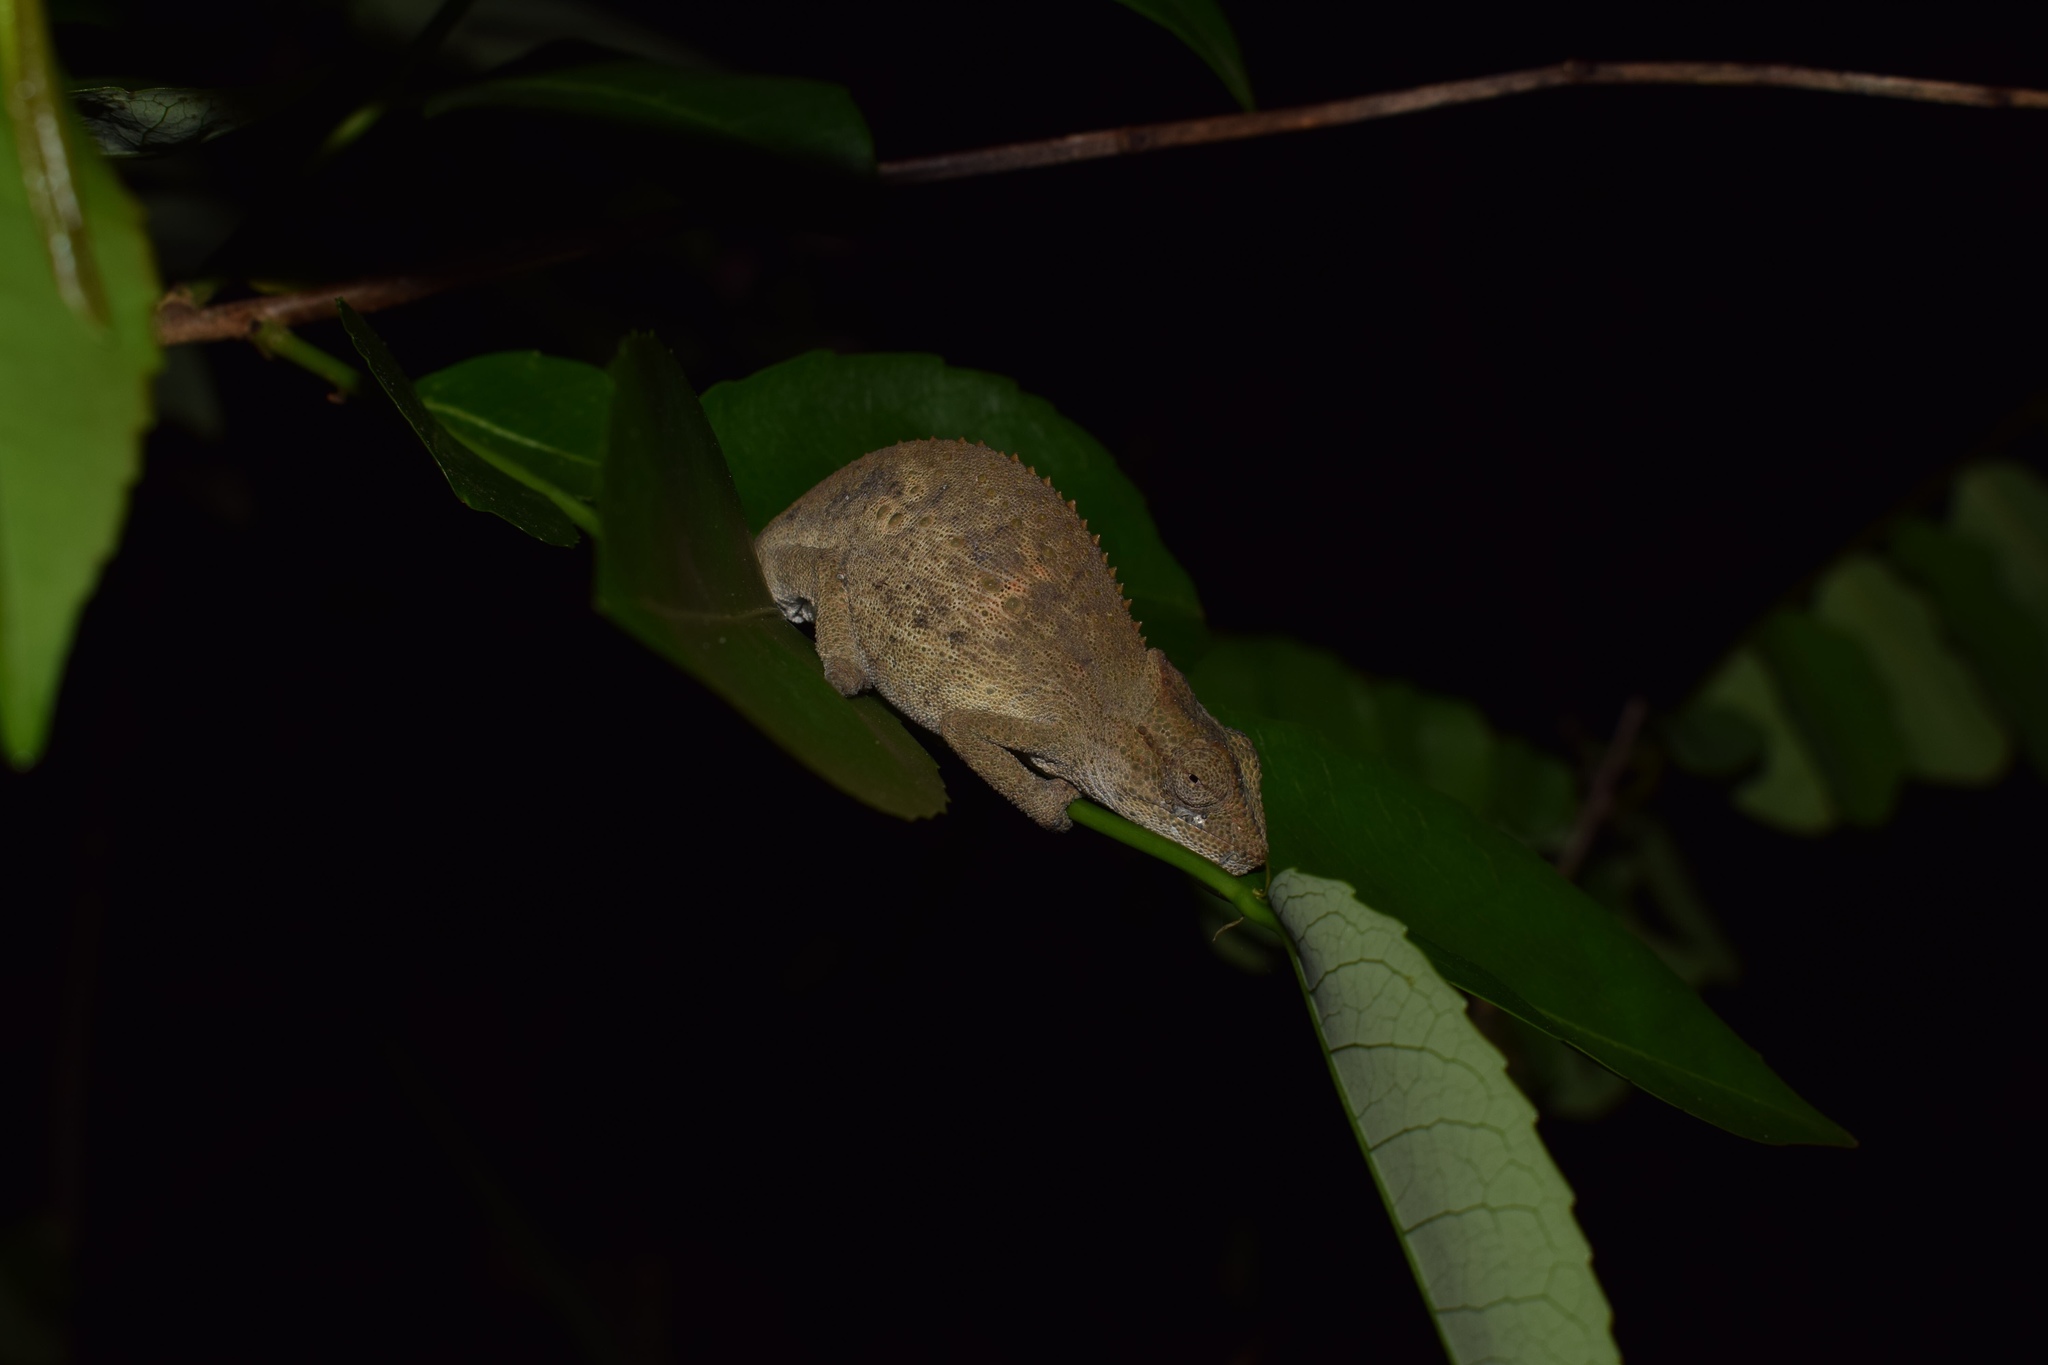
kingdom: Animalia
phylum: Chordata
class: Squamata
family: Chamaeleonidae
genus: Bradypodion
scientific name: Bradypodion melanocephalum
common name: Black-headed dwarf chameleon
